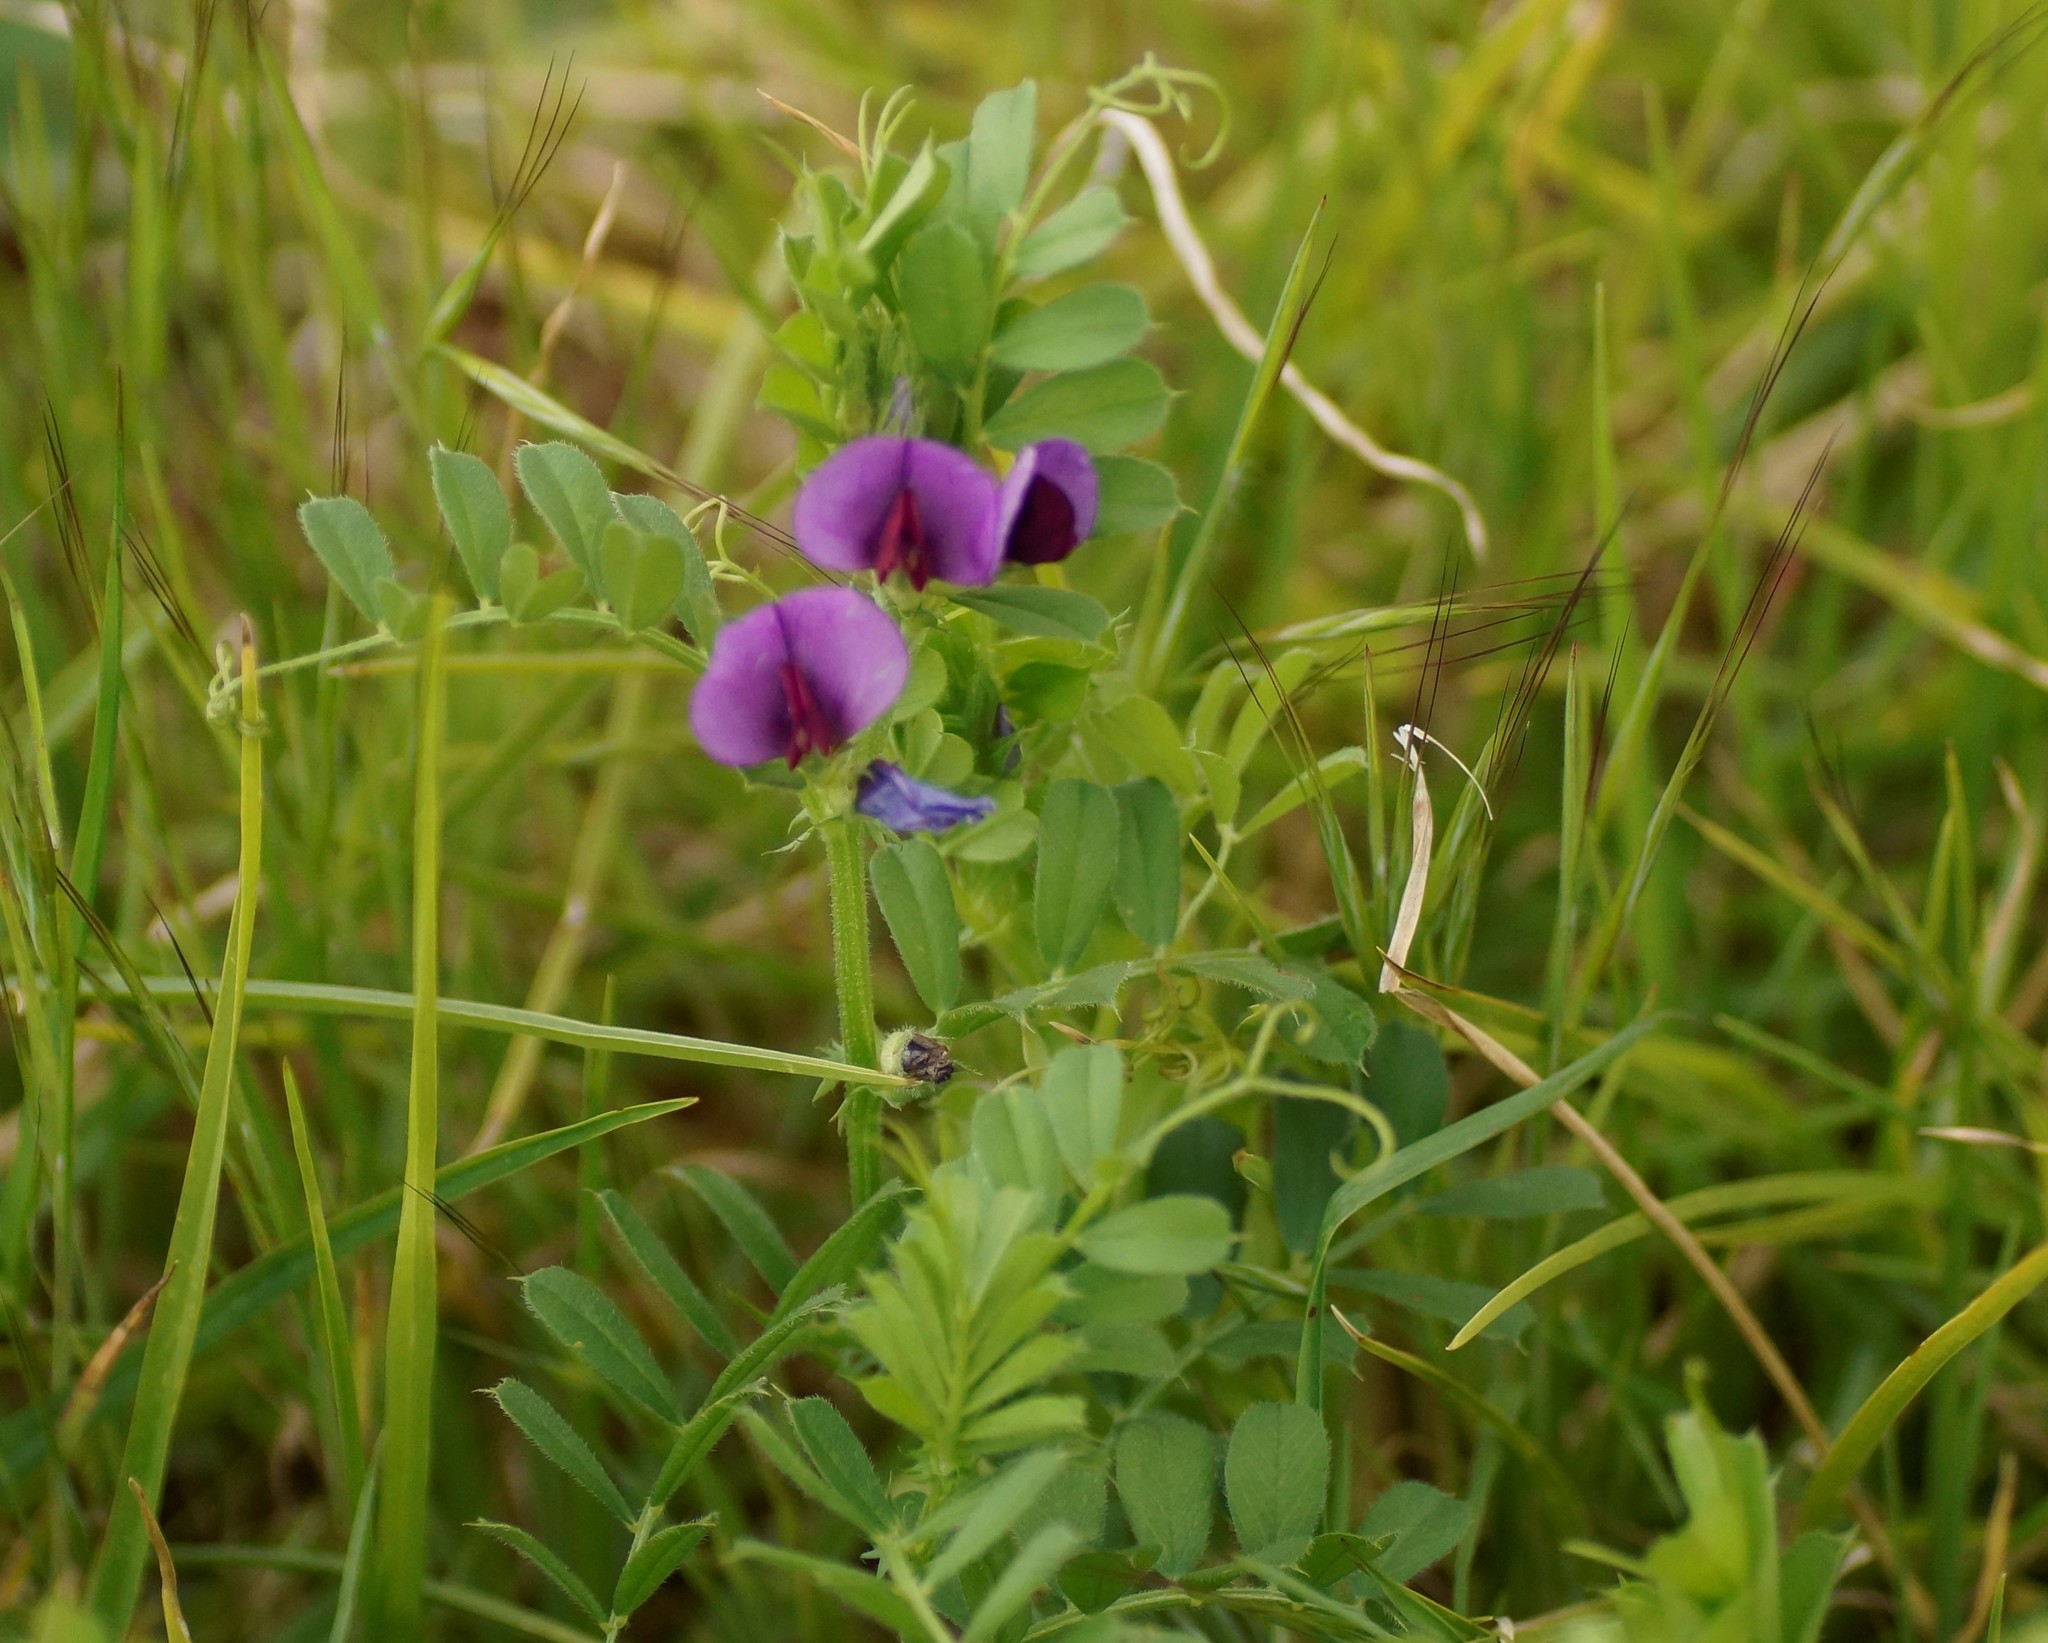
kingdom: Plantae
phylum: Tracheophyta
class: Magnoliopsida
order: Fabales
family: Fabaceae
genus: Vicia
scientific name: Vicia sativa
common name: Garden vetch
